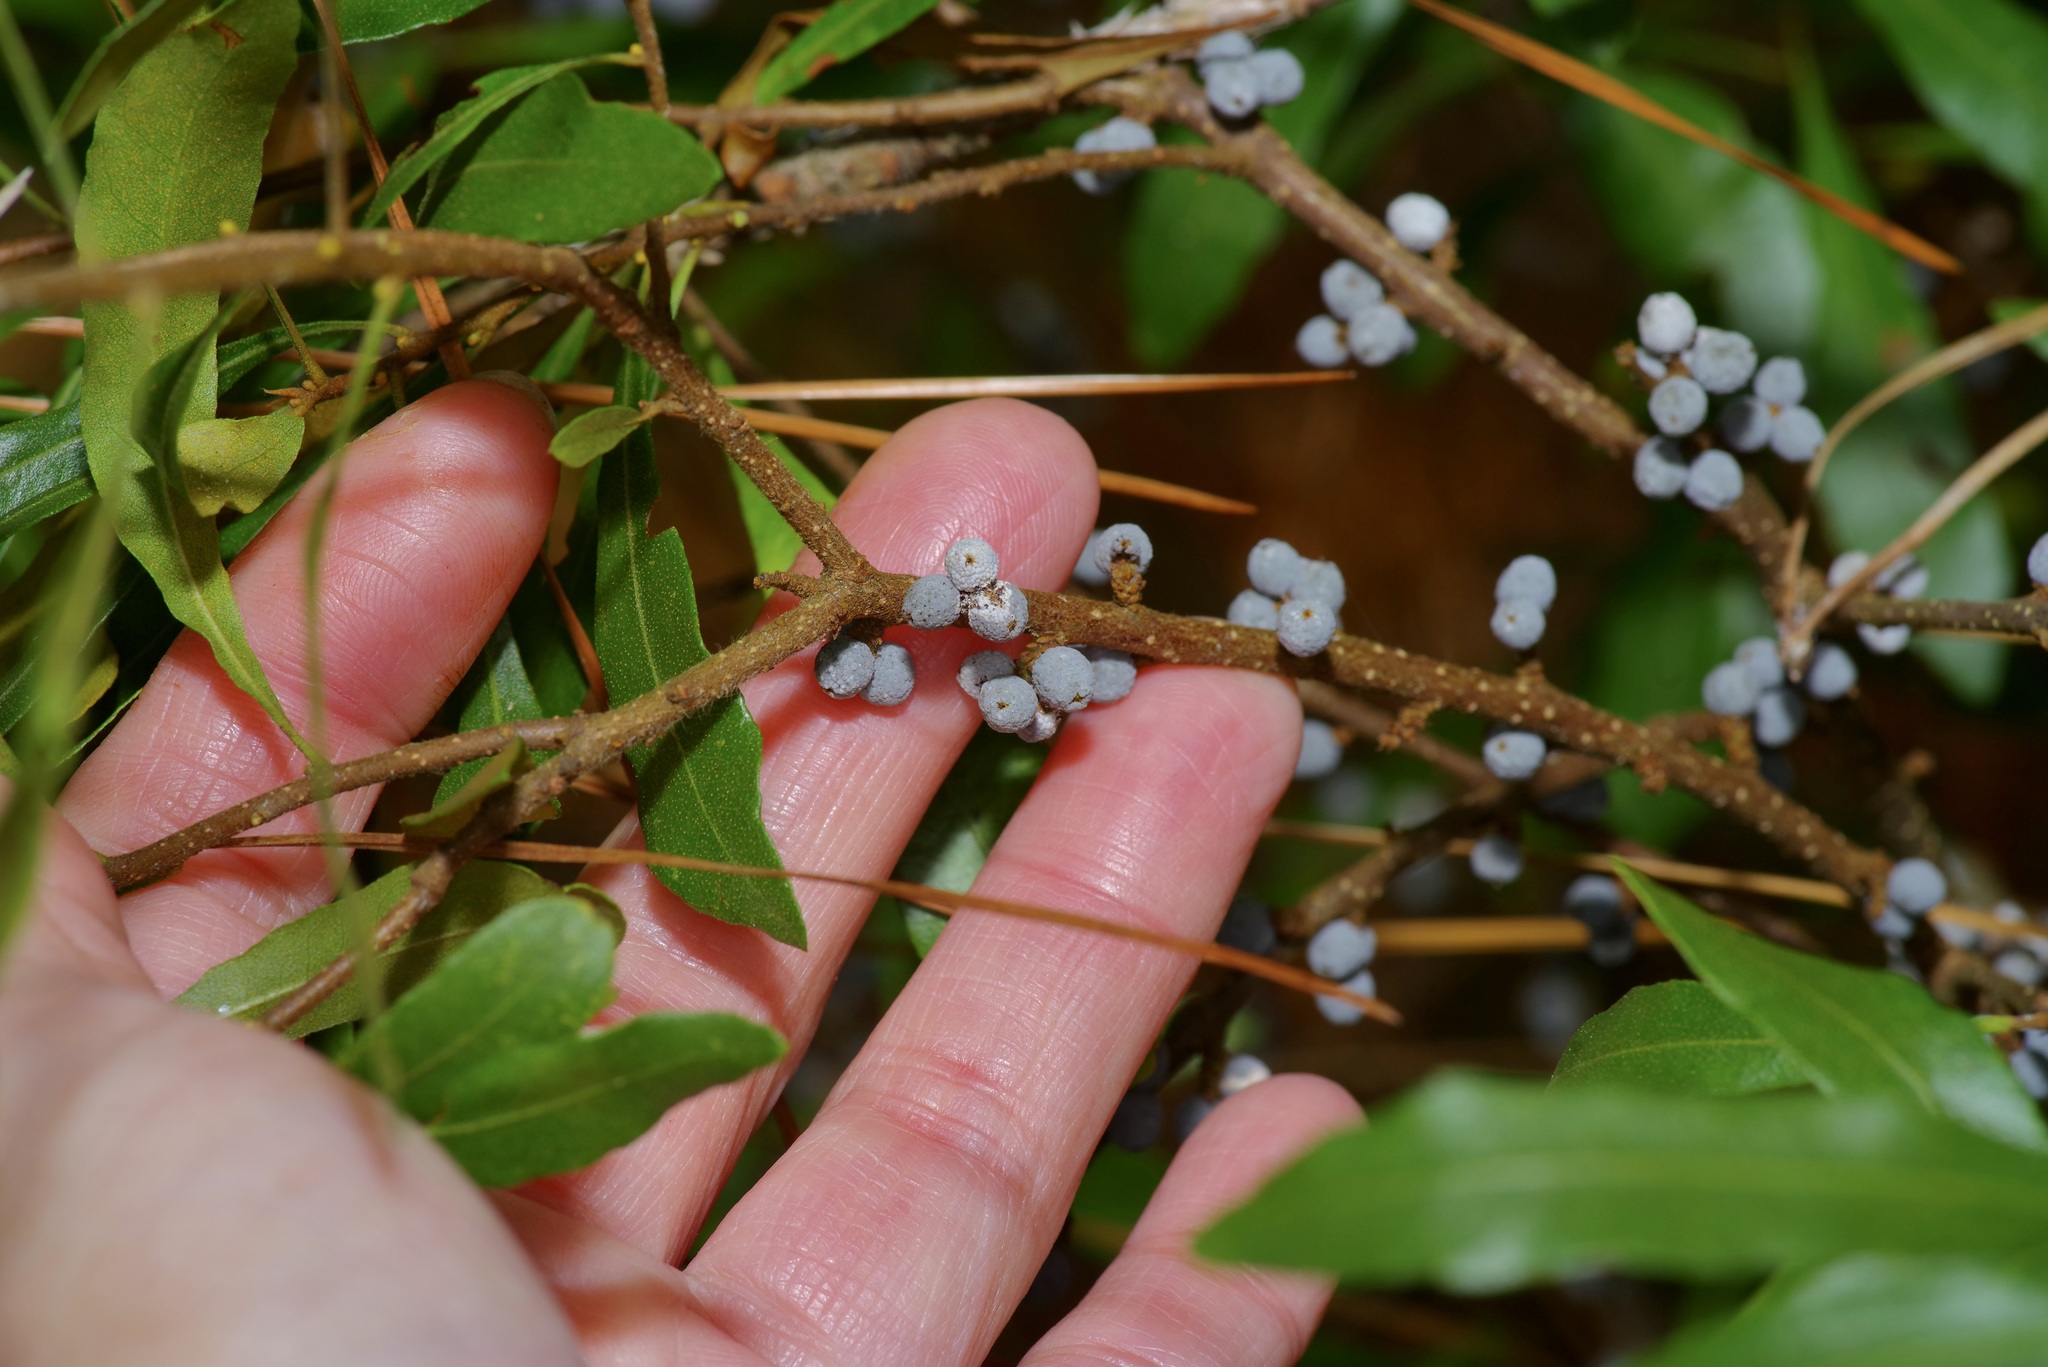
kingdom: Plantae
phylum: Tracheophyta
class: Magnoliopsida
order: Fagales
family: Myricaceae
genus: Morella
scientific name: Morella cerifera
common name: Wax myrtle
